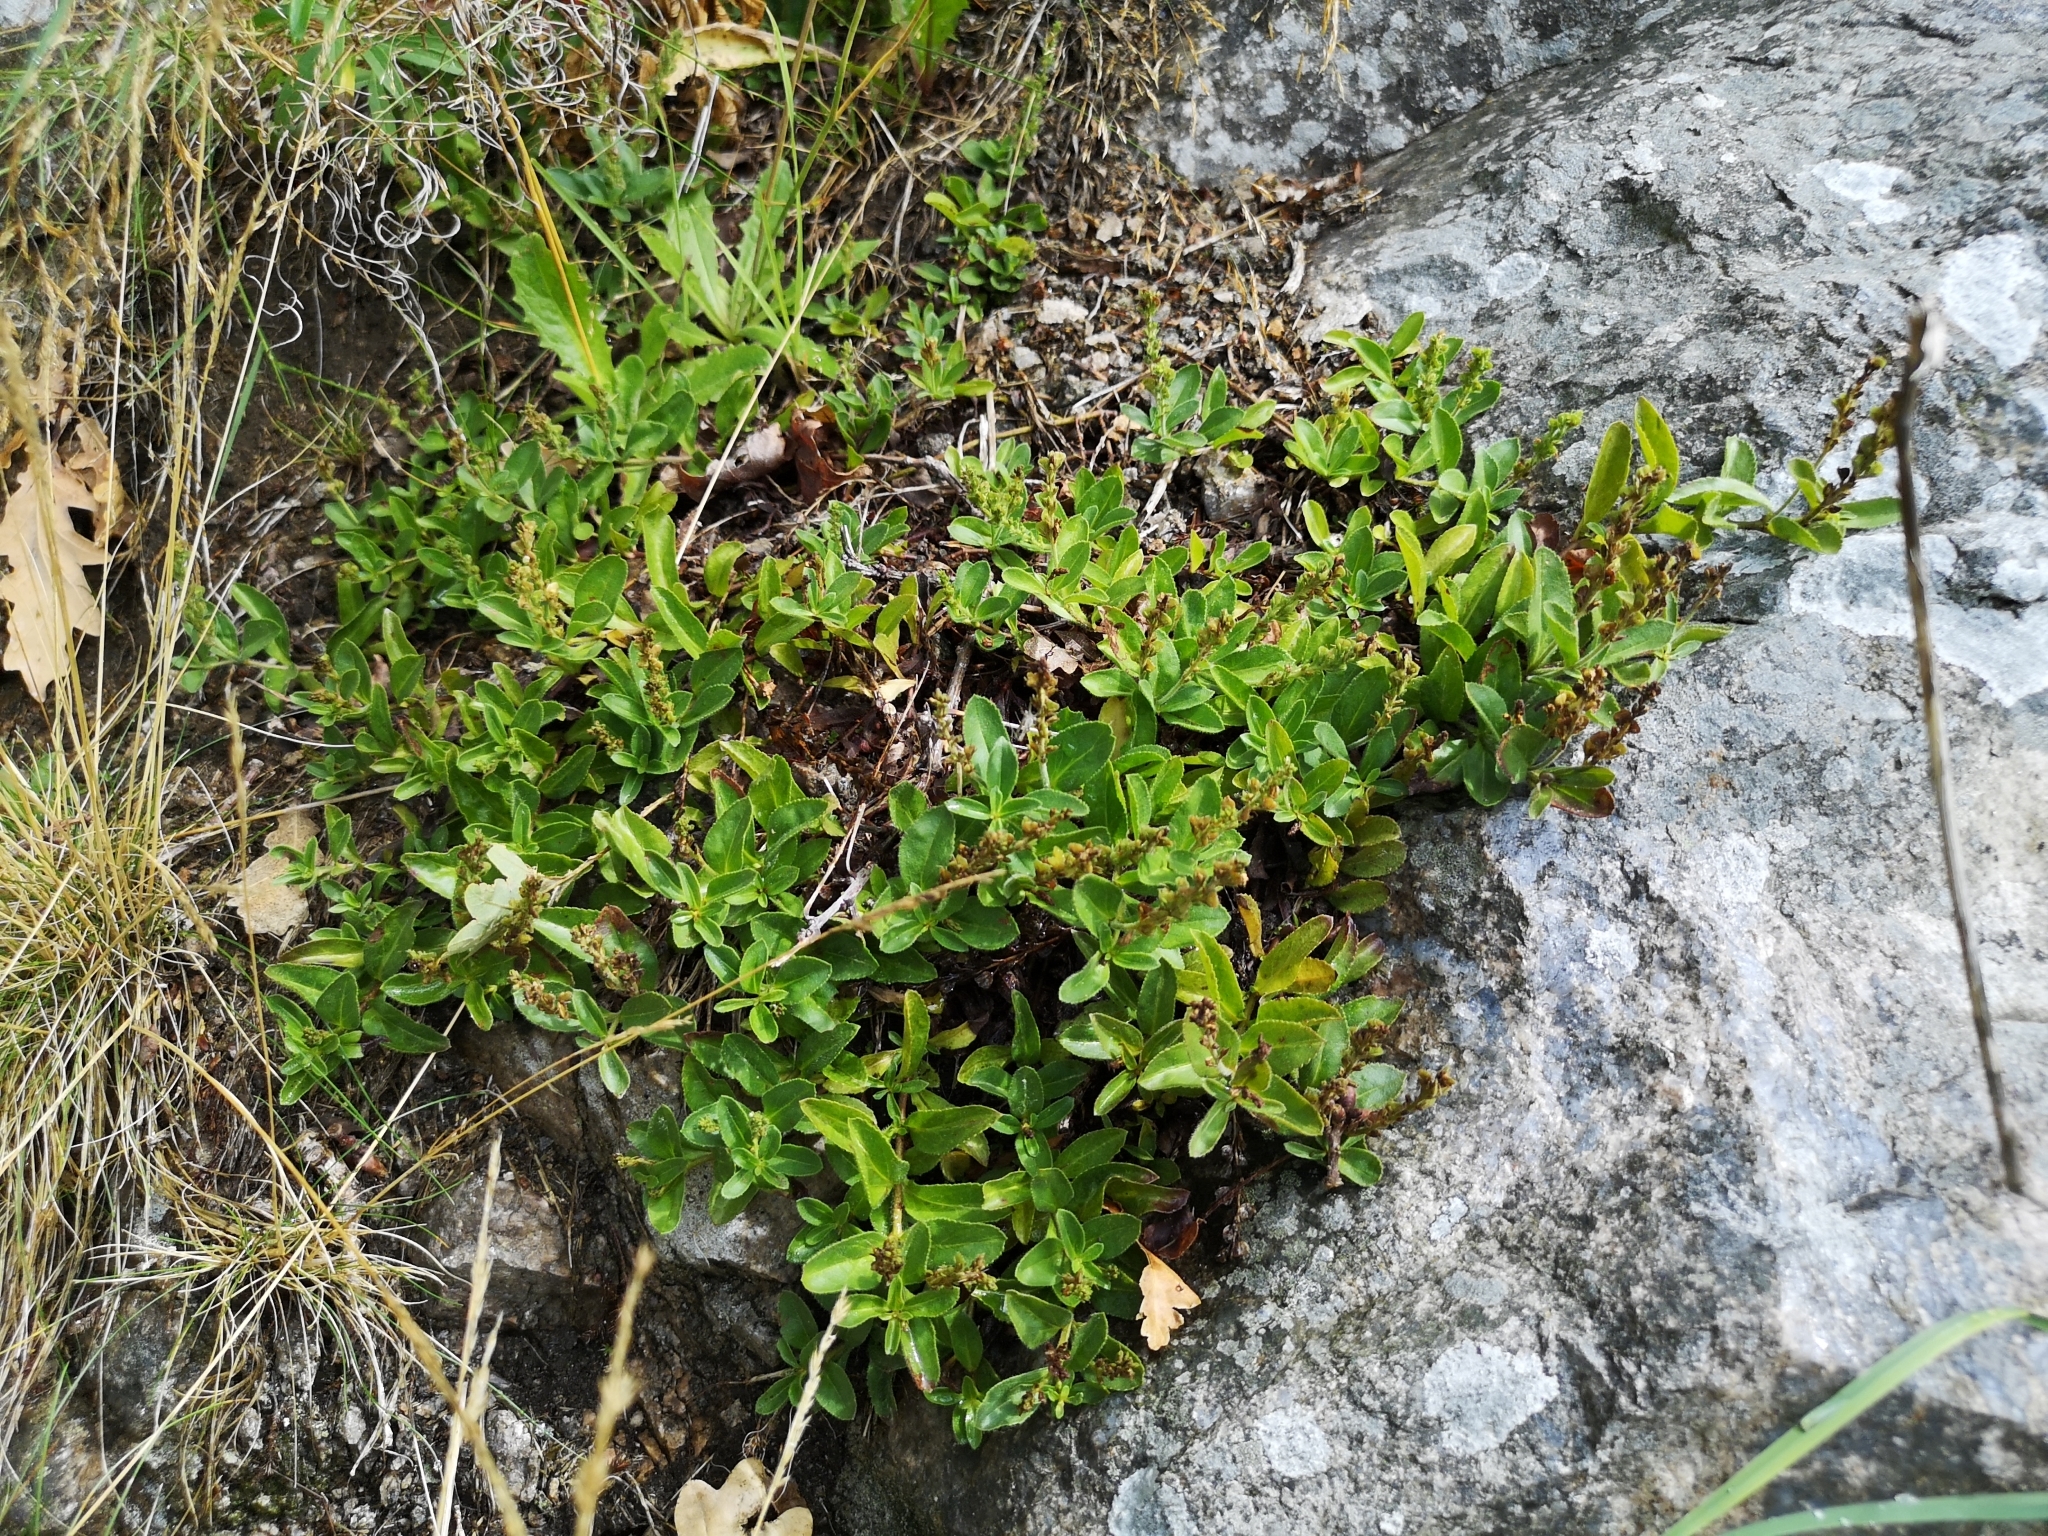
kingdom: Plantae
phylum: Tracheophyta
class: Magnoliopsida
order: Lamiales
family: Plantaginaceae
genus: Veronica
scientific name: Veronica officinalis
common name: Common speedwell
